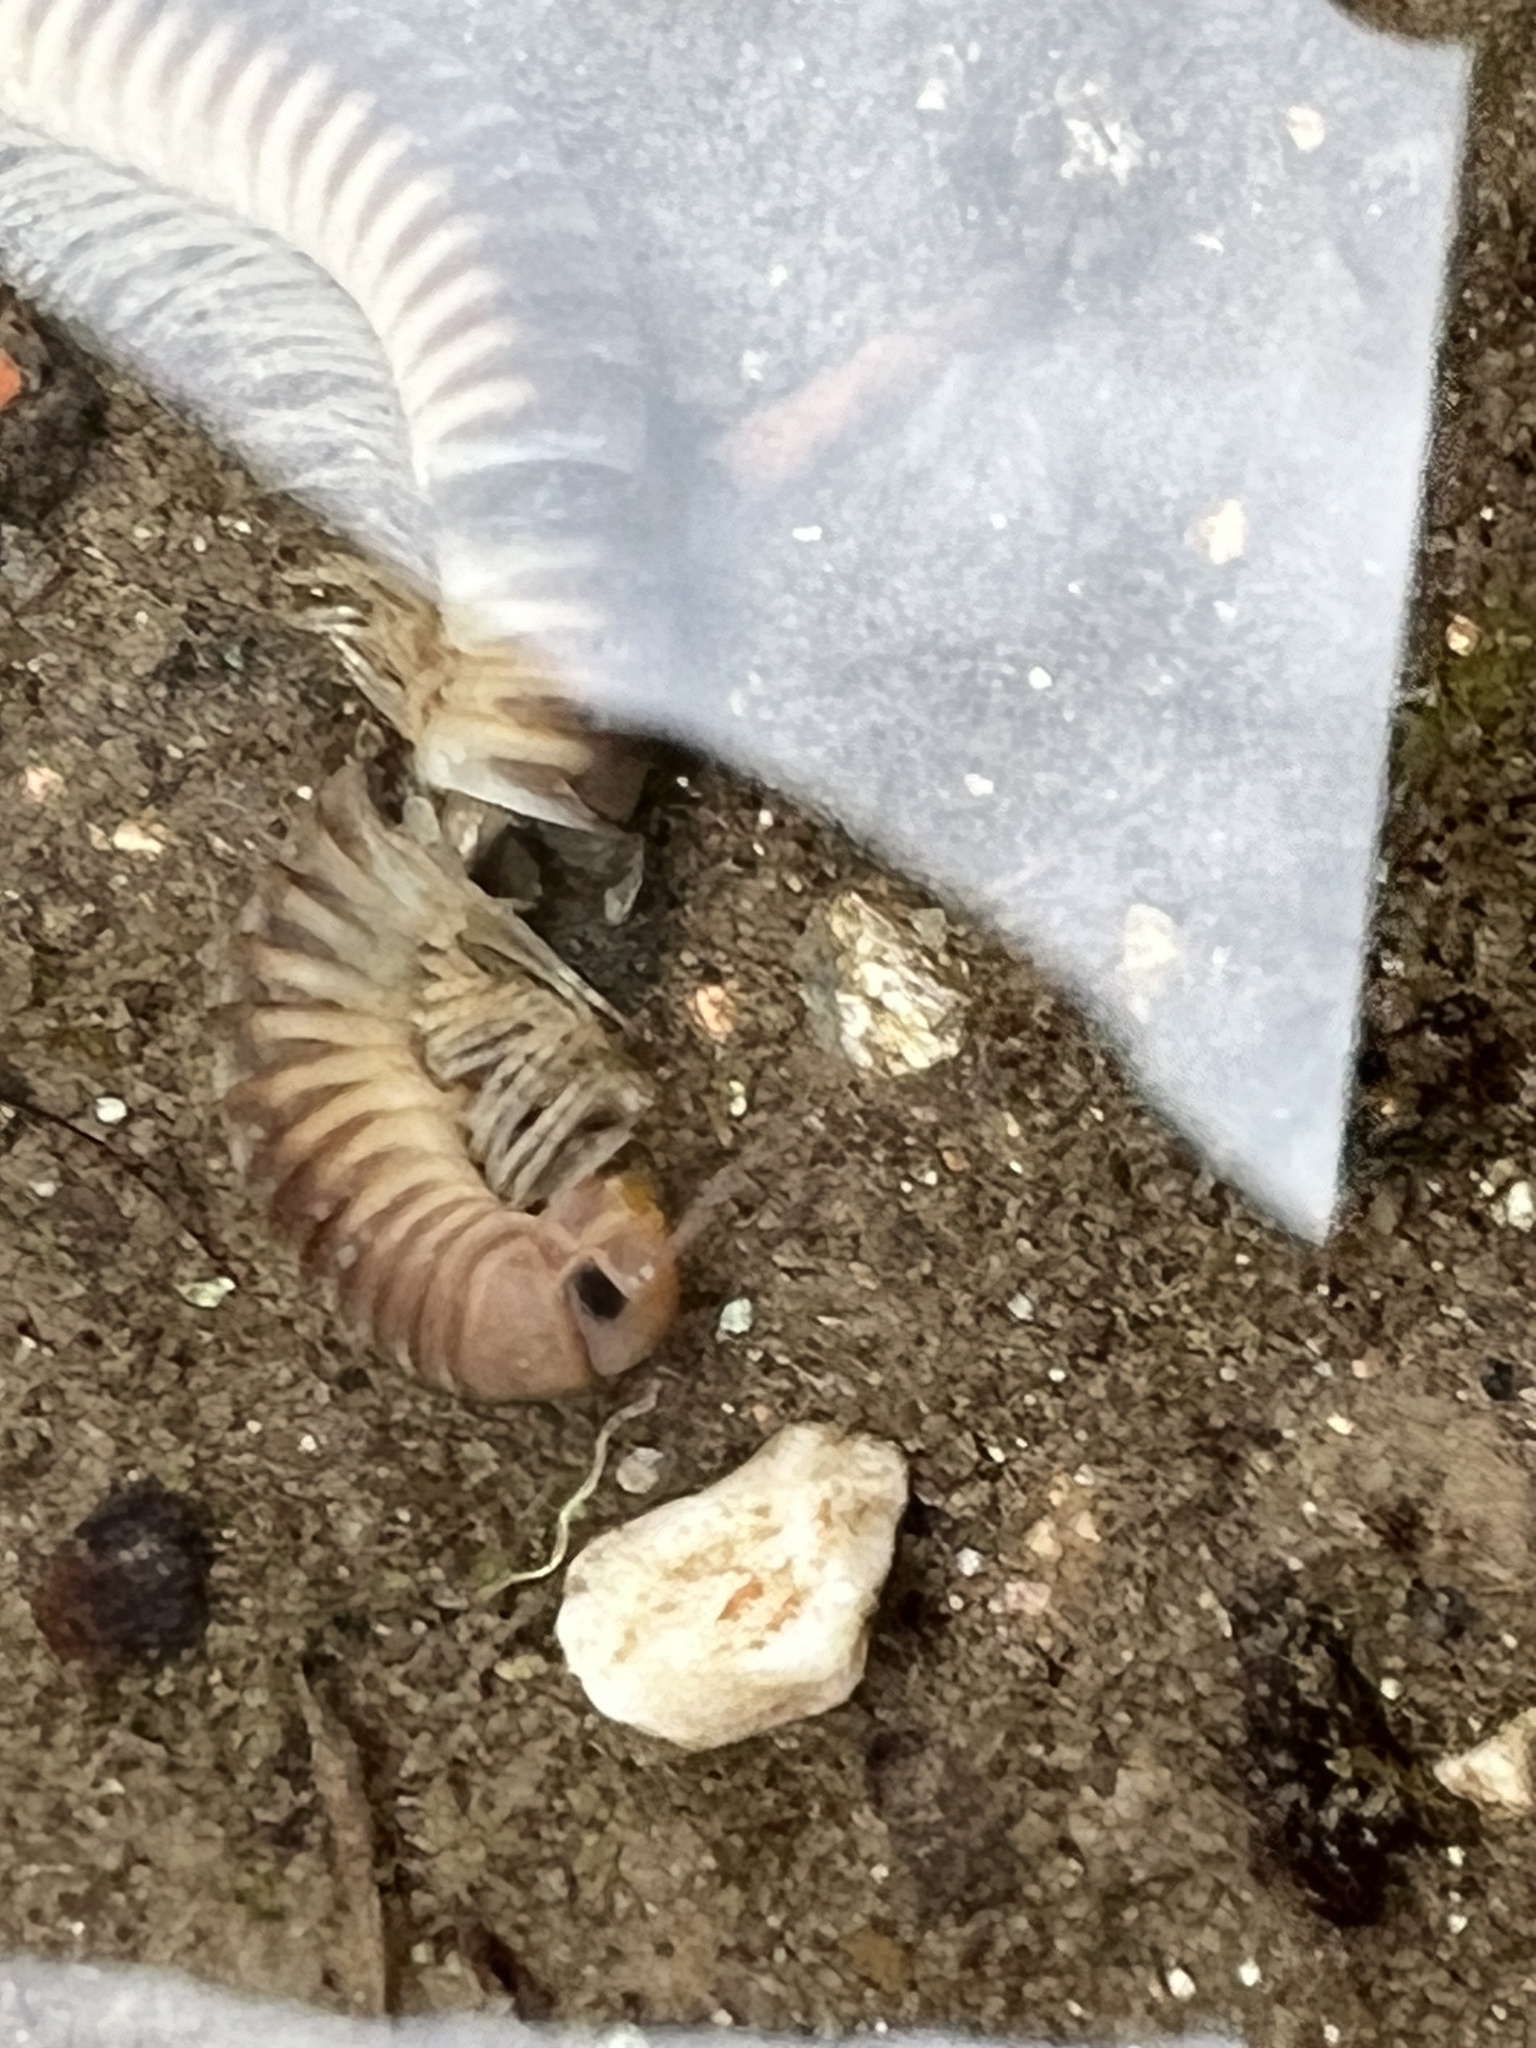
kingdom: Animalia
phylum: Arthropoda
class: Diplopoda
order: Julida
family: Julidae
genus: Pachyiulus
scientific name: Pachyiulus flavipes
